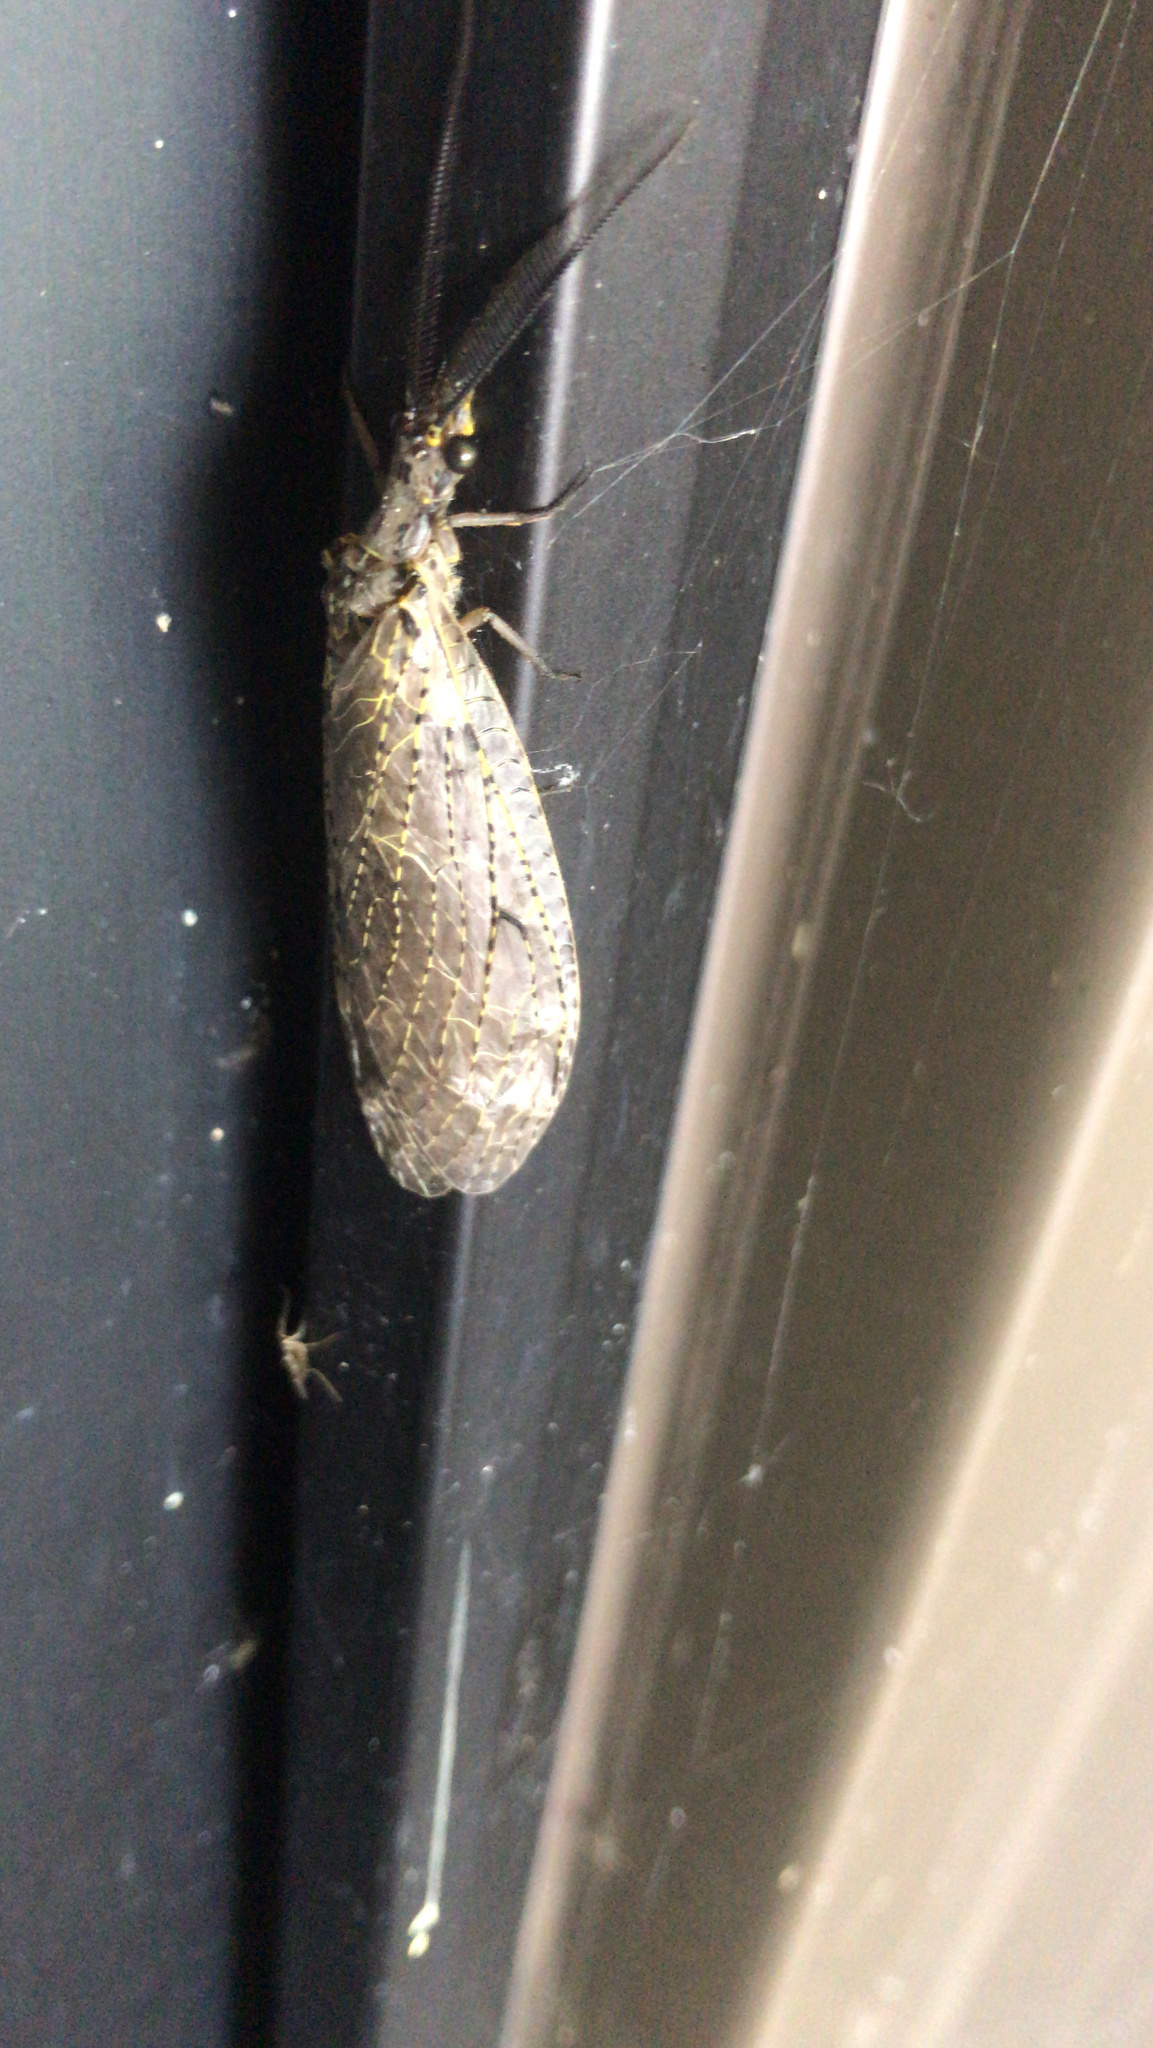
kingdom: Animalia
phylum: Arthropoda
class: Insecta
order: Megaloptera
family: Corydalidae
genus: Chauliodes
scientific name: Chauliodes rastricornis
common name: Spring fishfly
